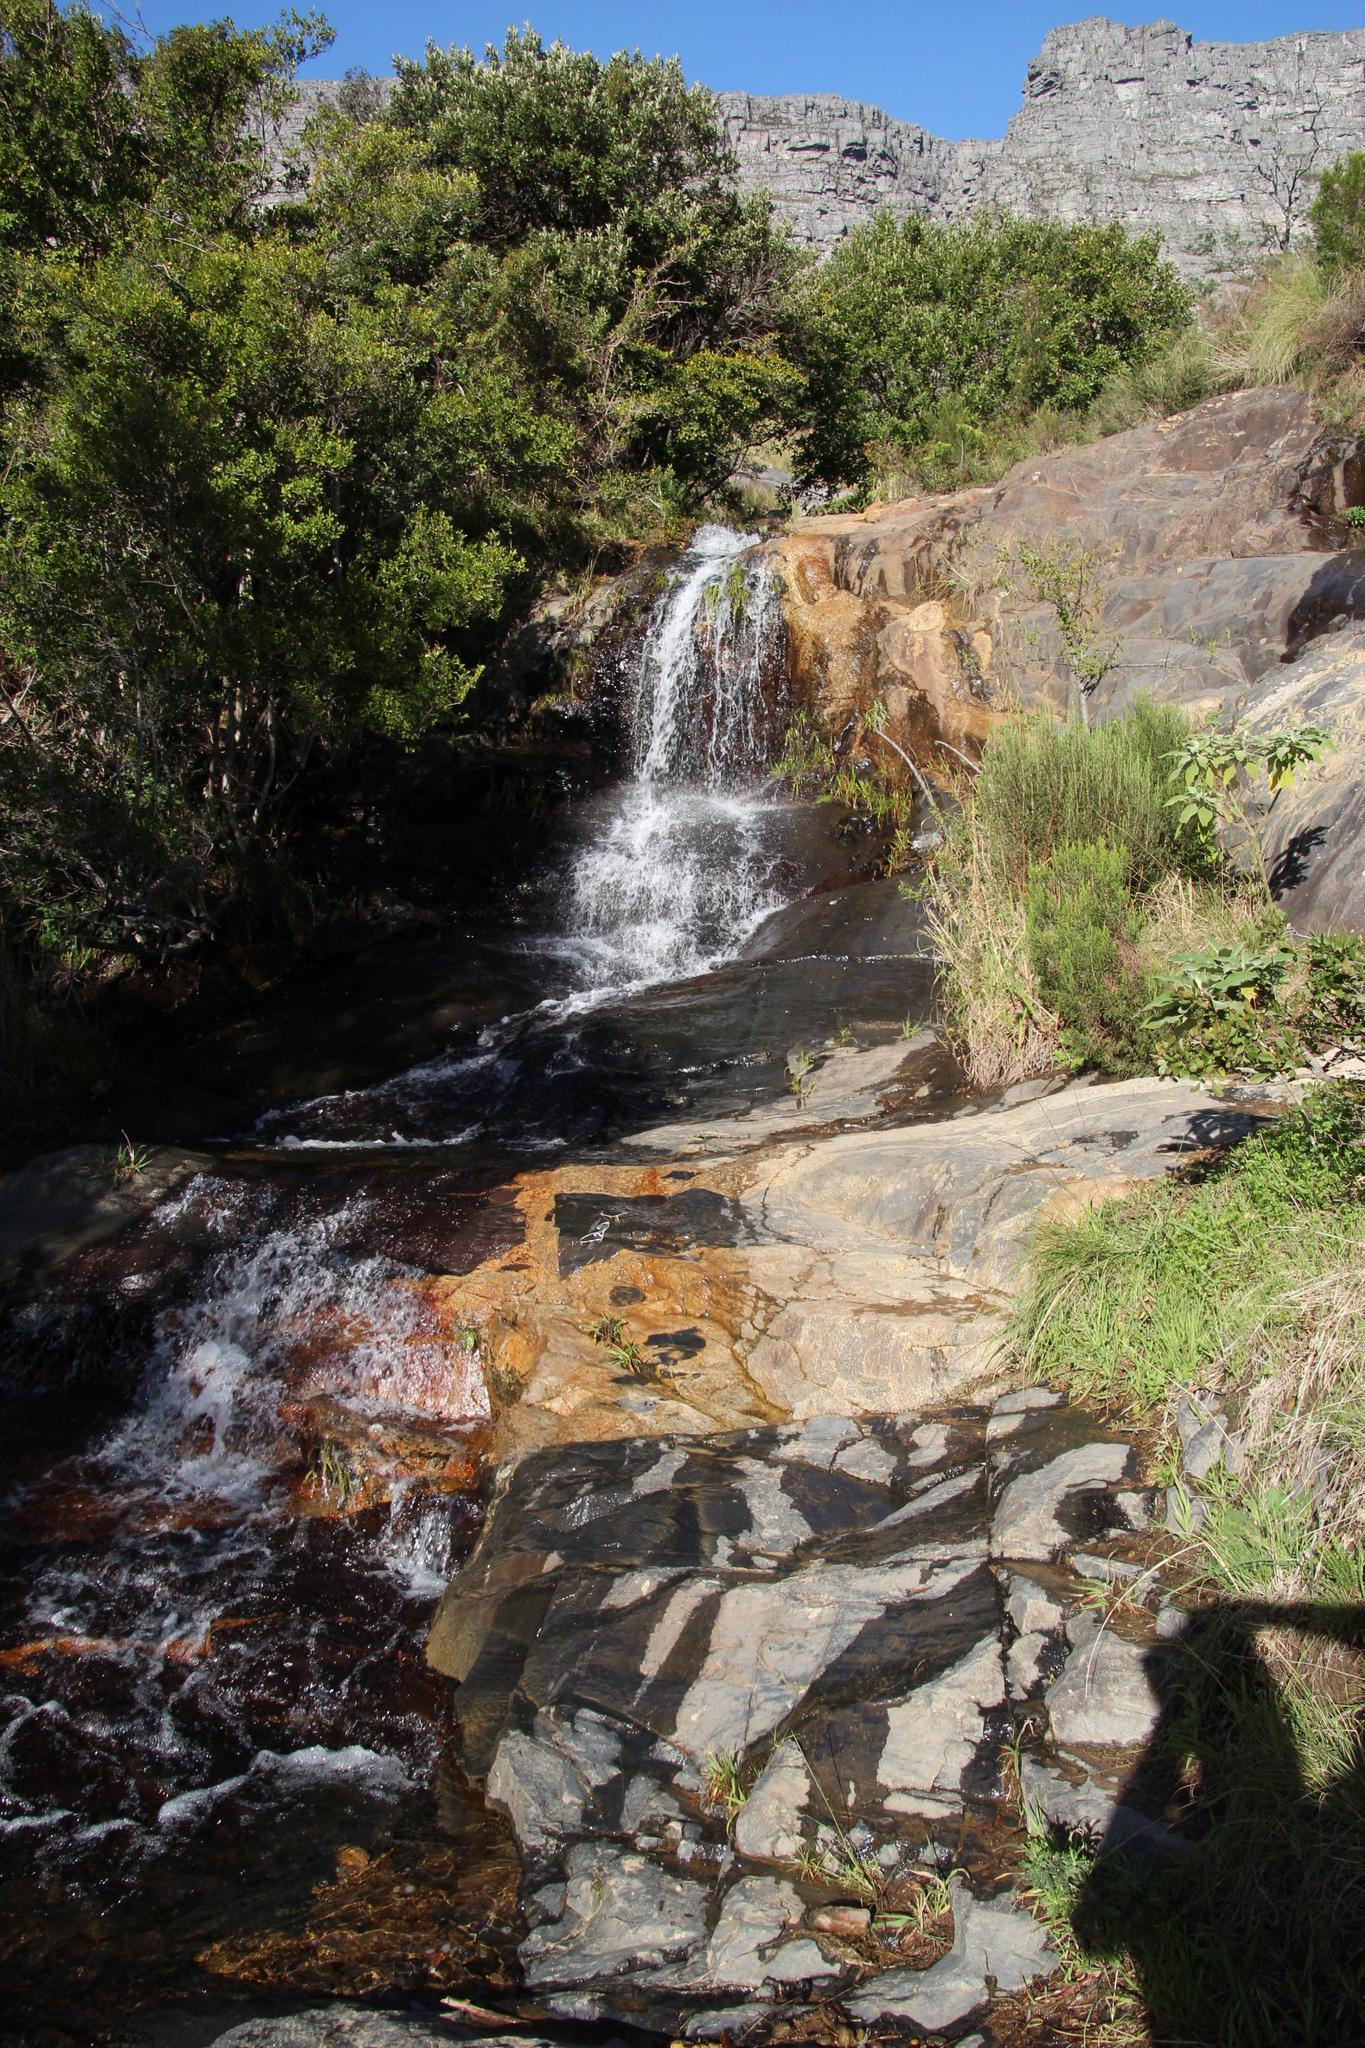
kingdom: Plantae
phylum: Tracheophyta
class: Magnoliopsida
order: Solanales
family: Solanaceae
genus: Solanum
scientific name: Solanum mauritianum
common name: Earleaf nightshade
